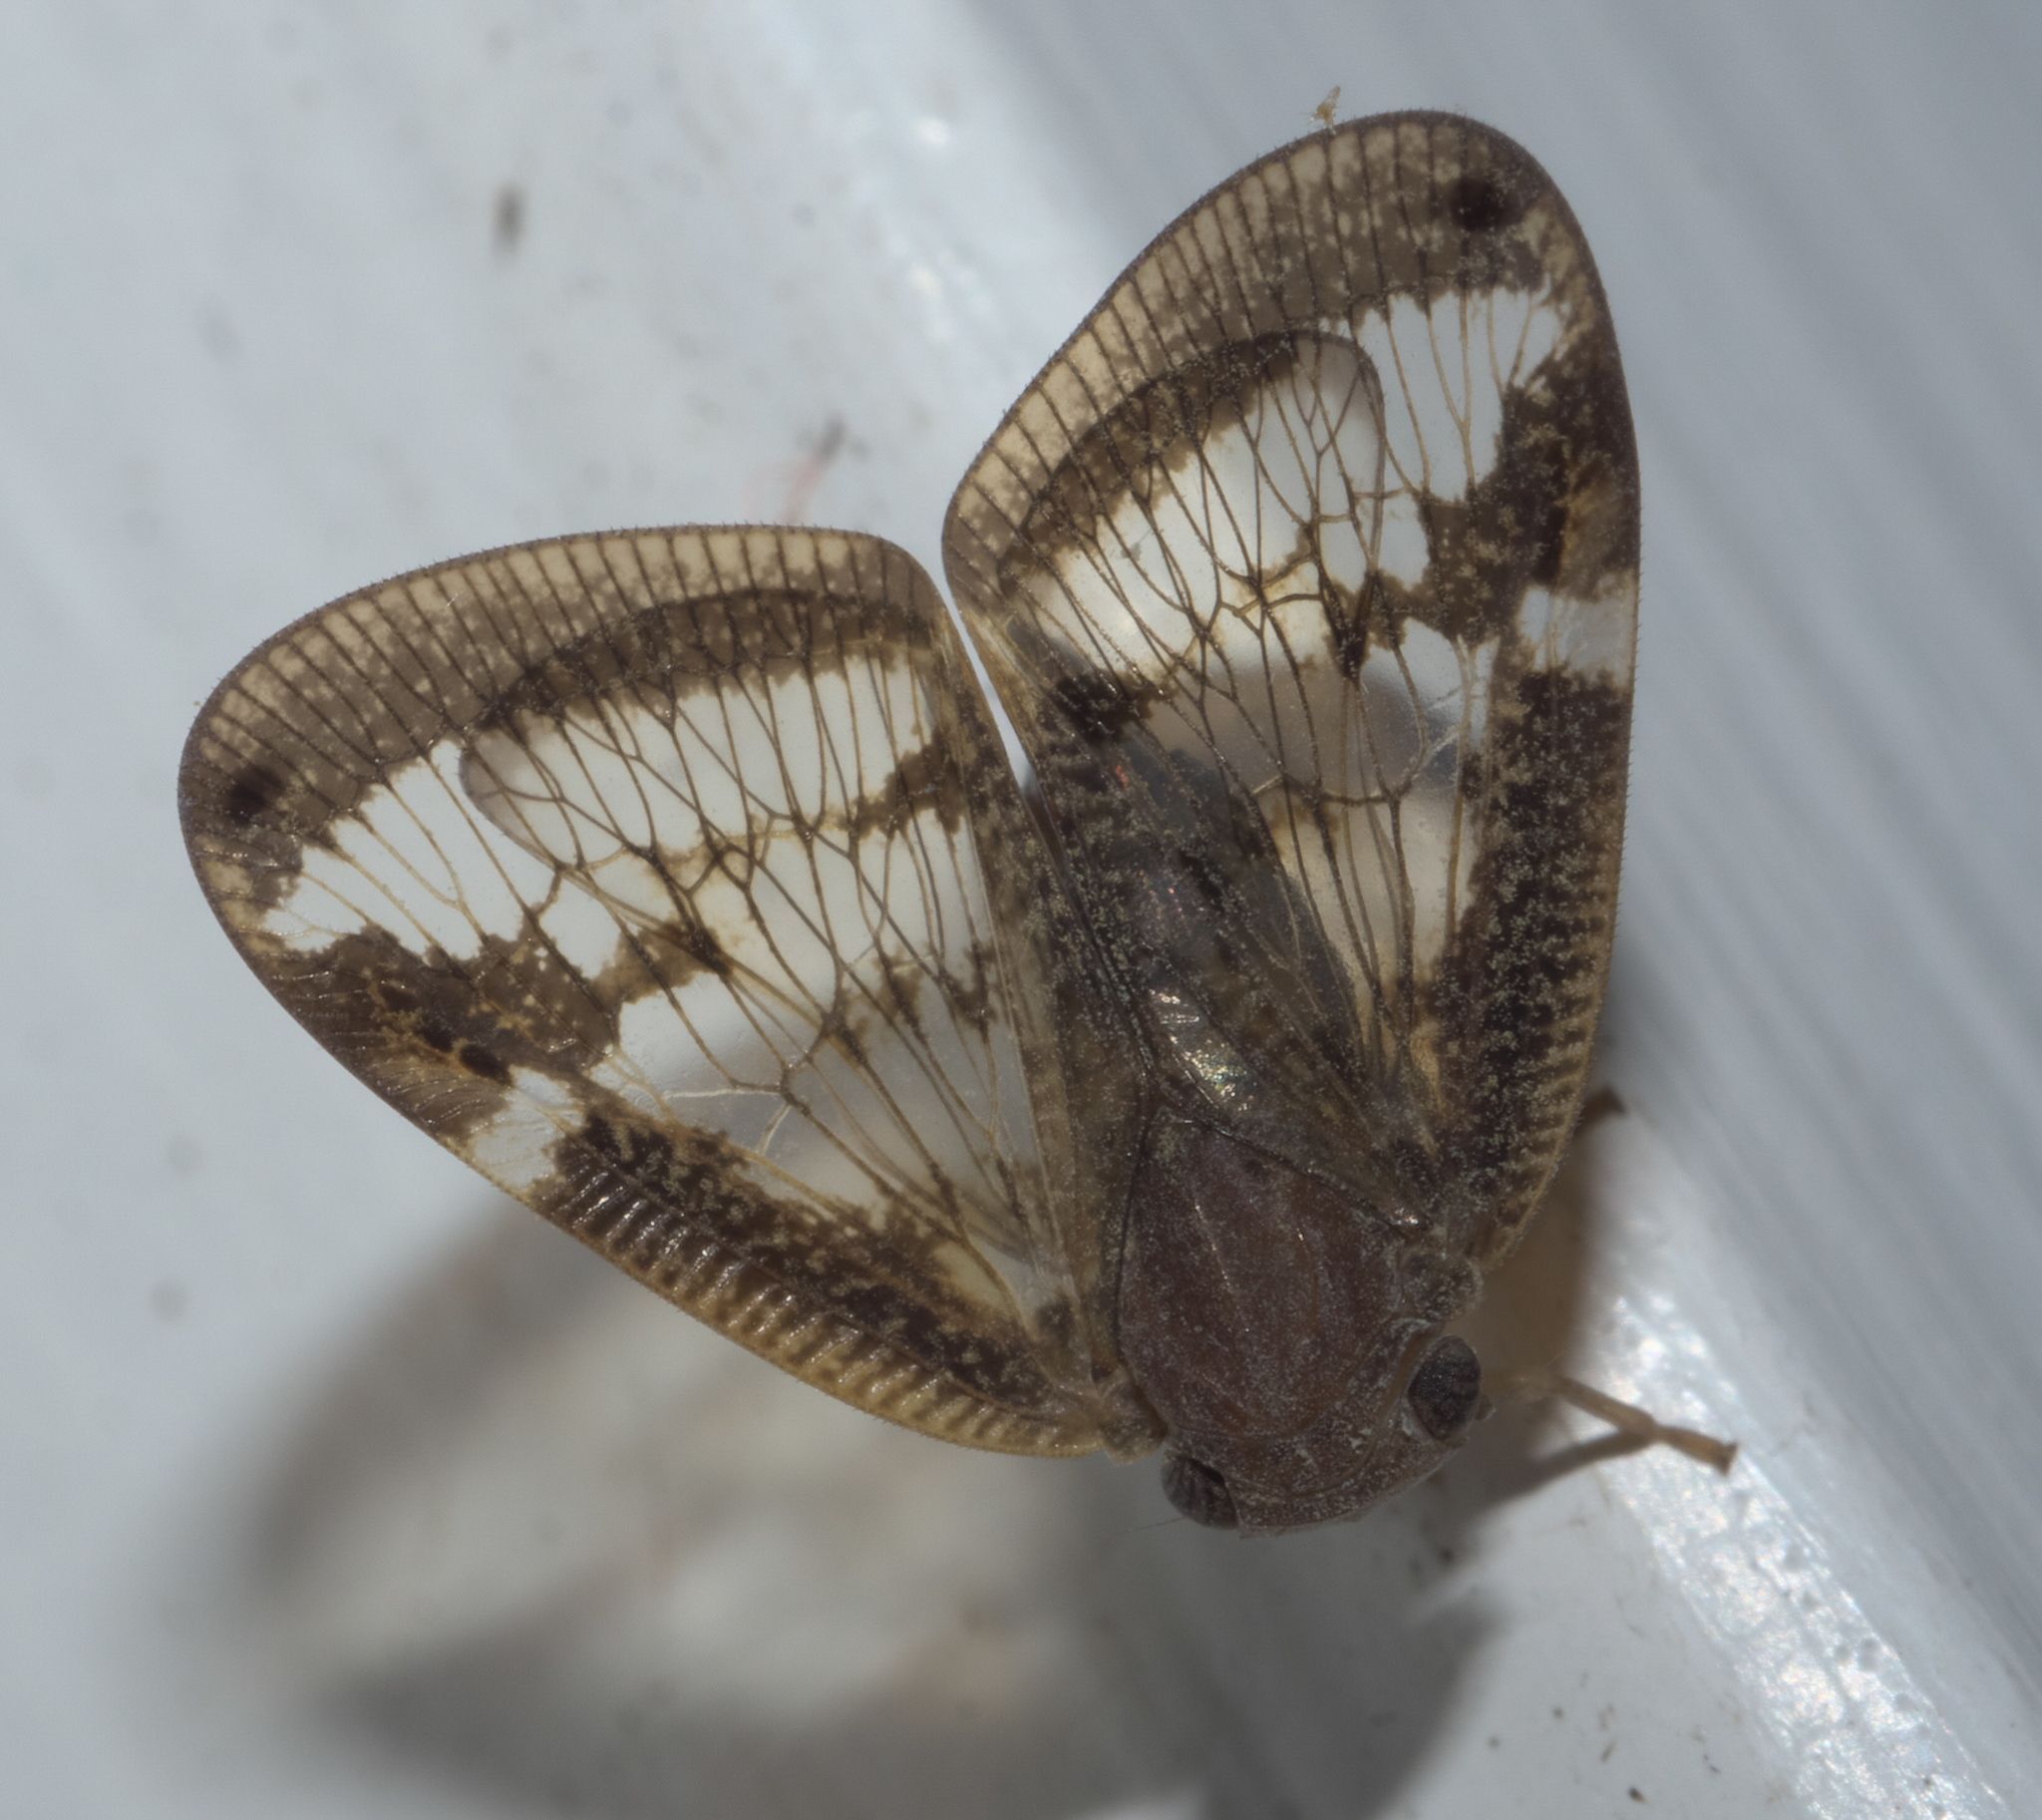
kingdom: Animalia
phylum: Arthropoda
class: Insecta
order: Hemiptera
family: Ricaniidae
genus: Scolypopa
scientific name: Scolypopa australis
